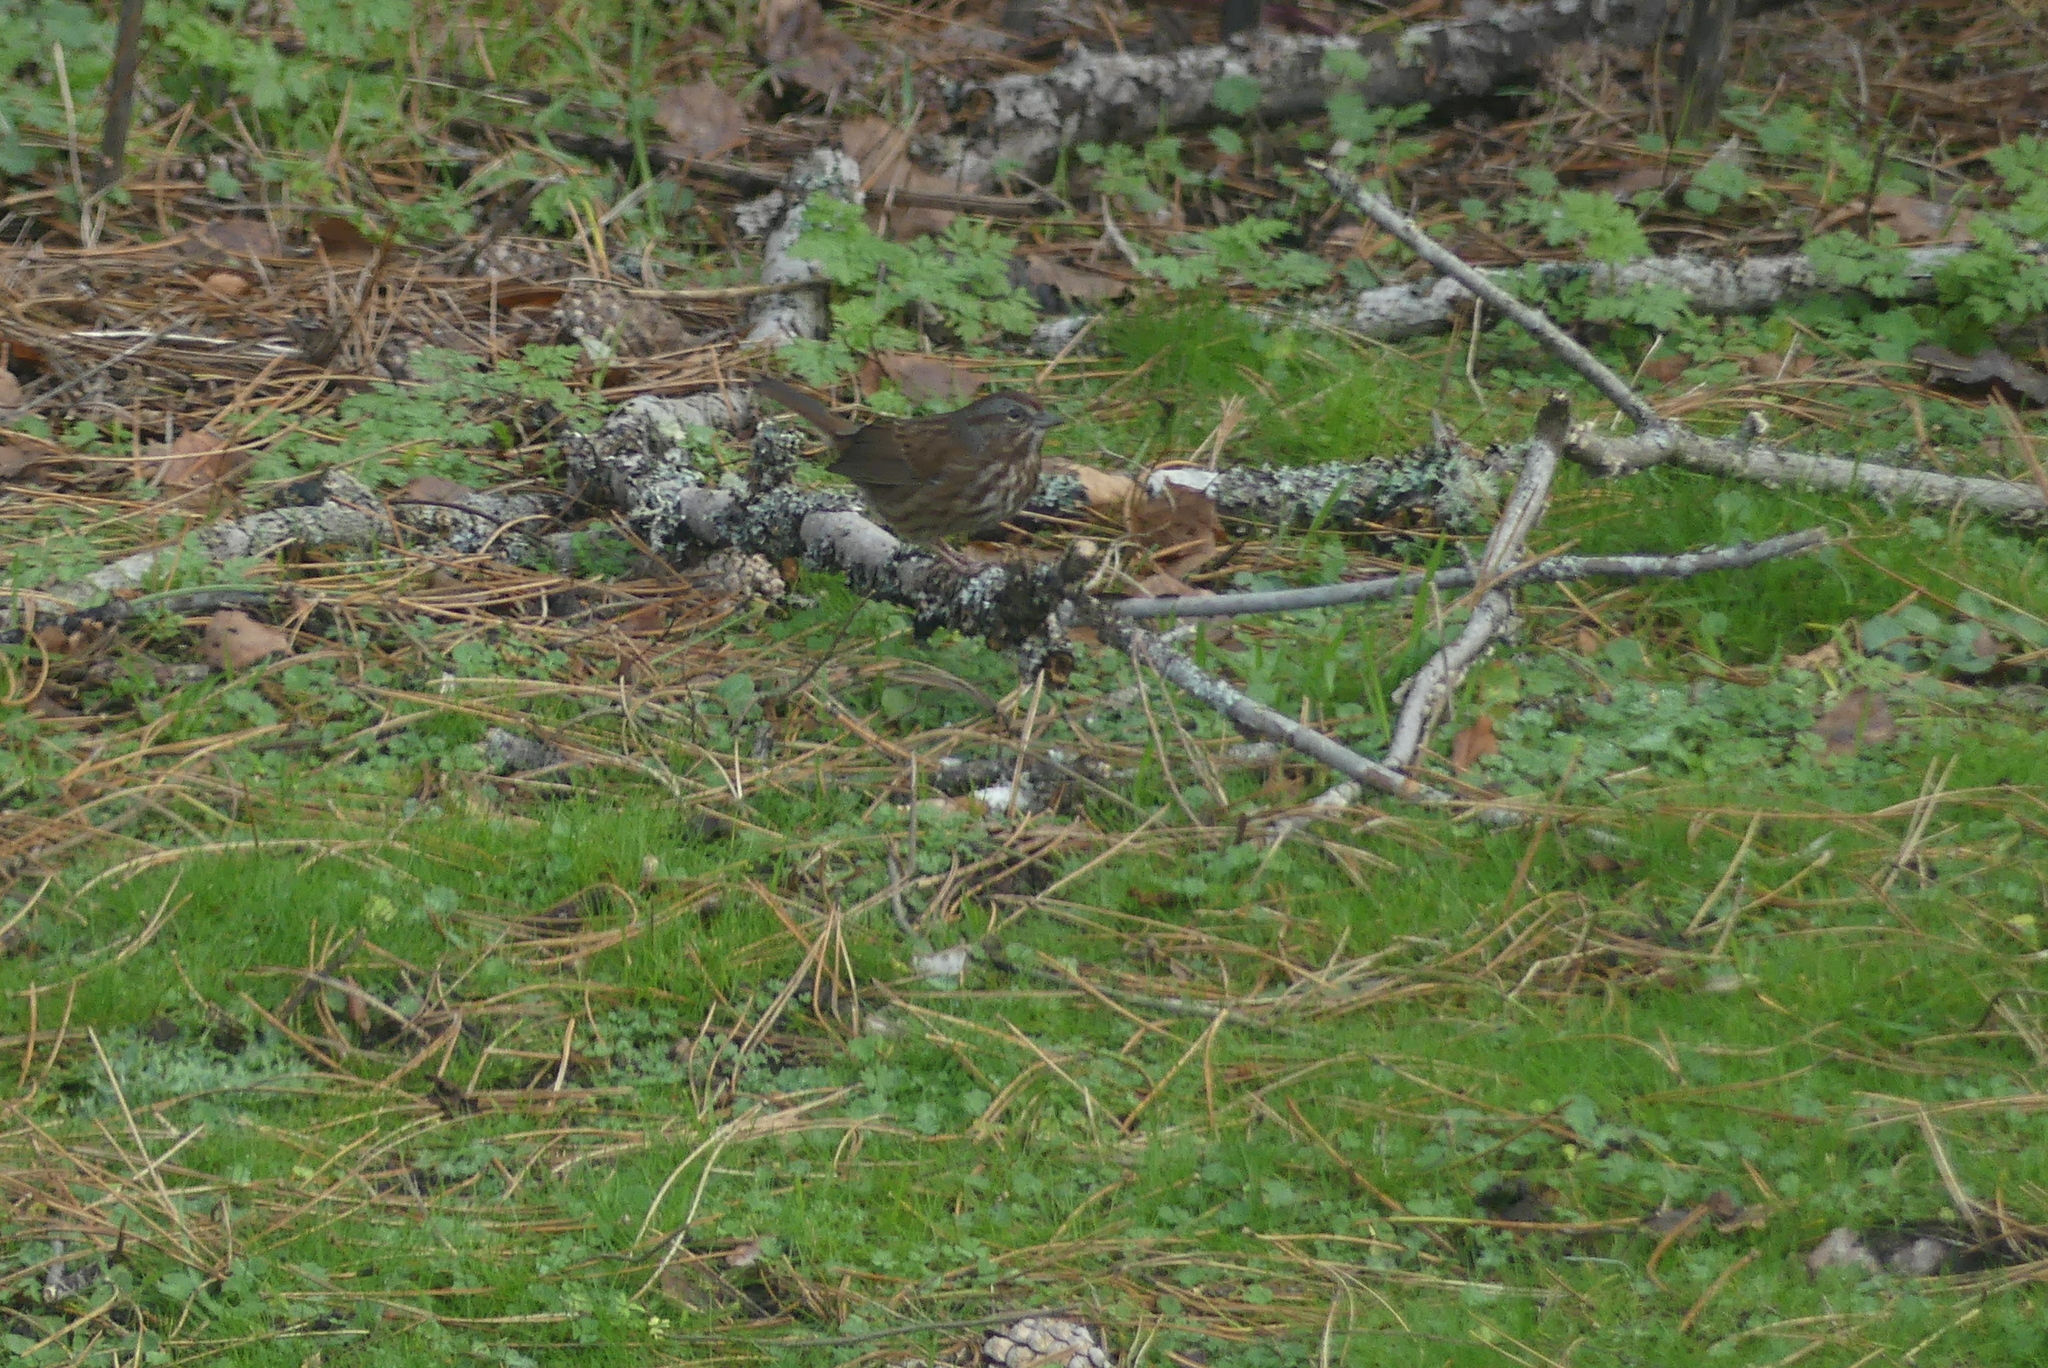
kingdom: Animalia
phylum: Chordata
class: Aves
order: Passeriformes
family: Passerellidae
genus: Melospiza
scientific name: Melospiza melodia
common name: Song sparrow
